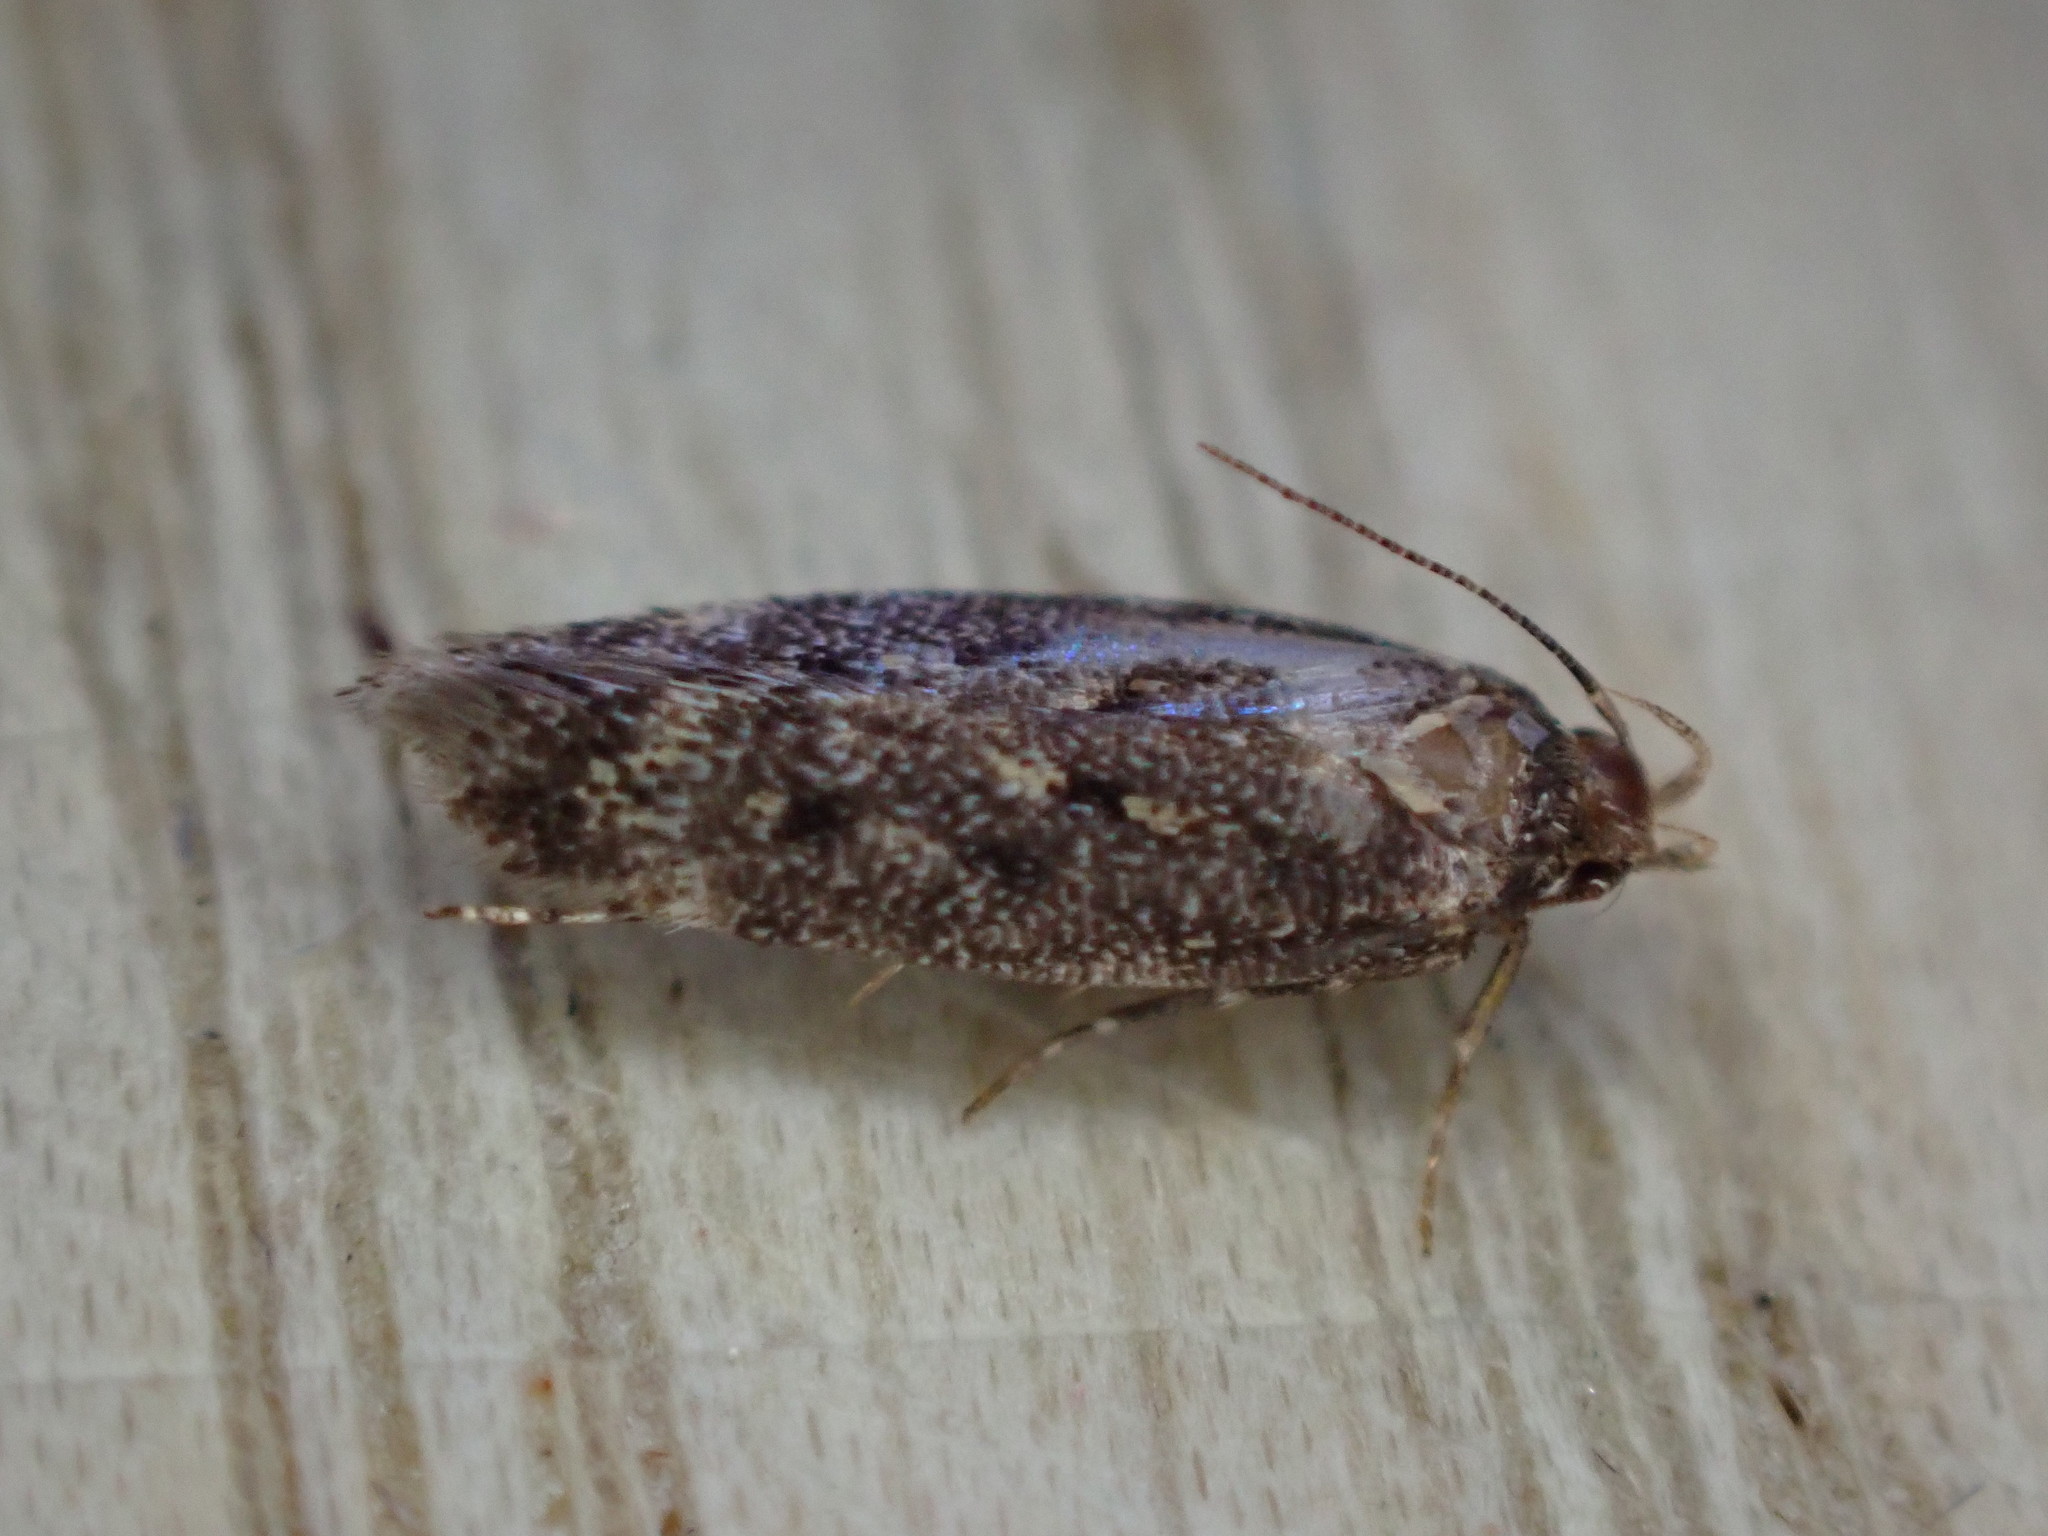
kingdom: Animalia
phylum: Arthropoda
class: Insecta
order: Lepidoptera
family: Gelechiidae
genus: Bryotropha
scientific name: Bryotropha affinis
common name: Dark groundling
